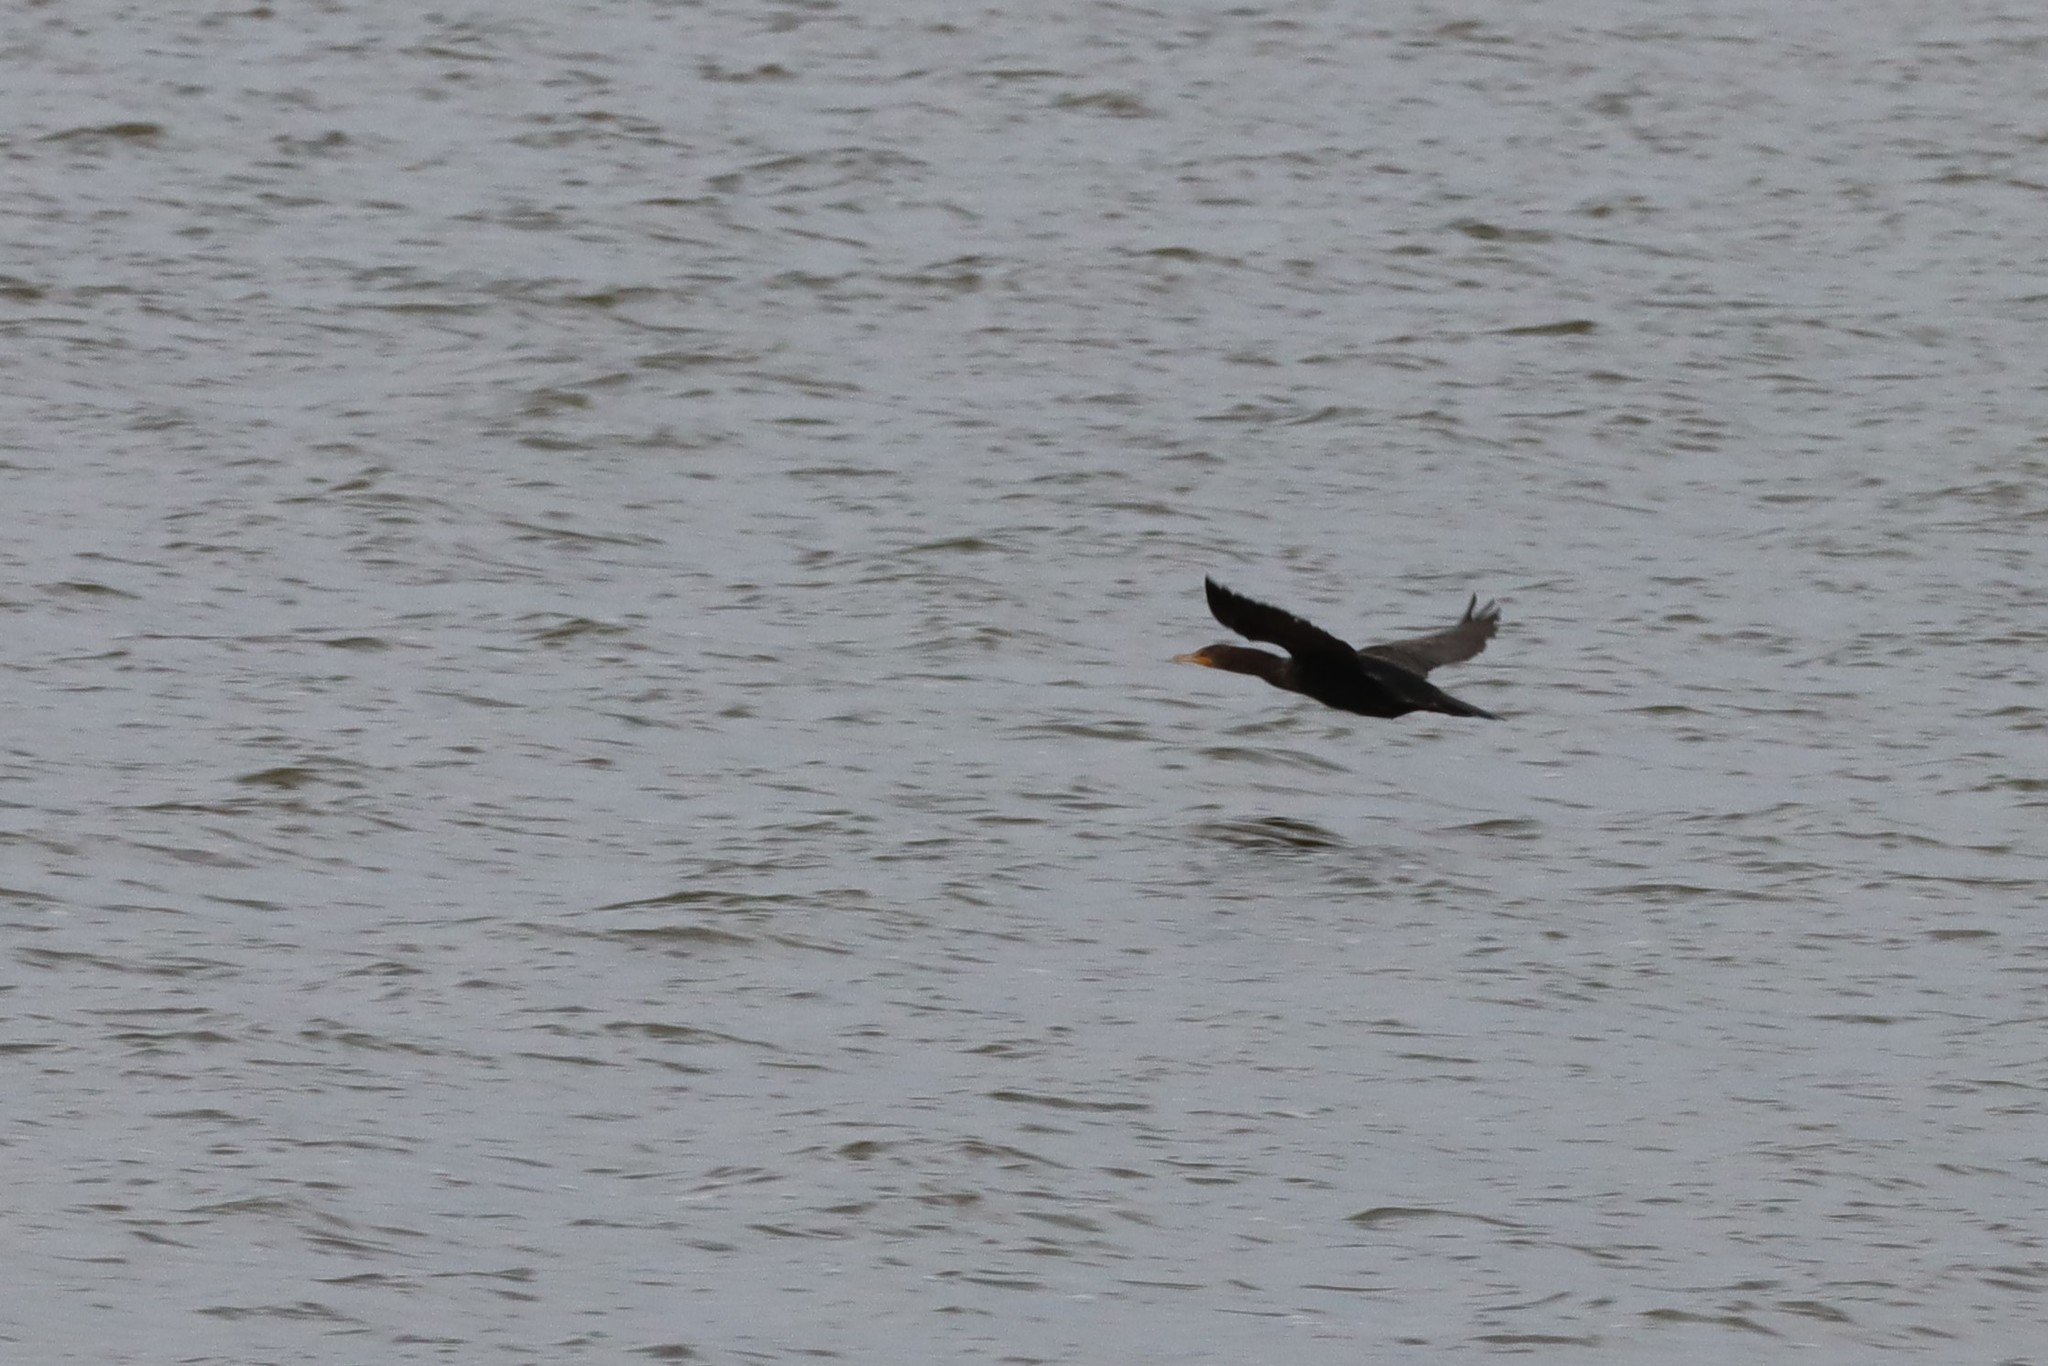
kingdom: Animalia
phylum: Chordata
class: Aves
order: Suliformes
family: Phalacrocoracidae
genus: Phalacrocorax
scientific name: Phalacrocorax auritus
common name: Double-crested cormorant
